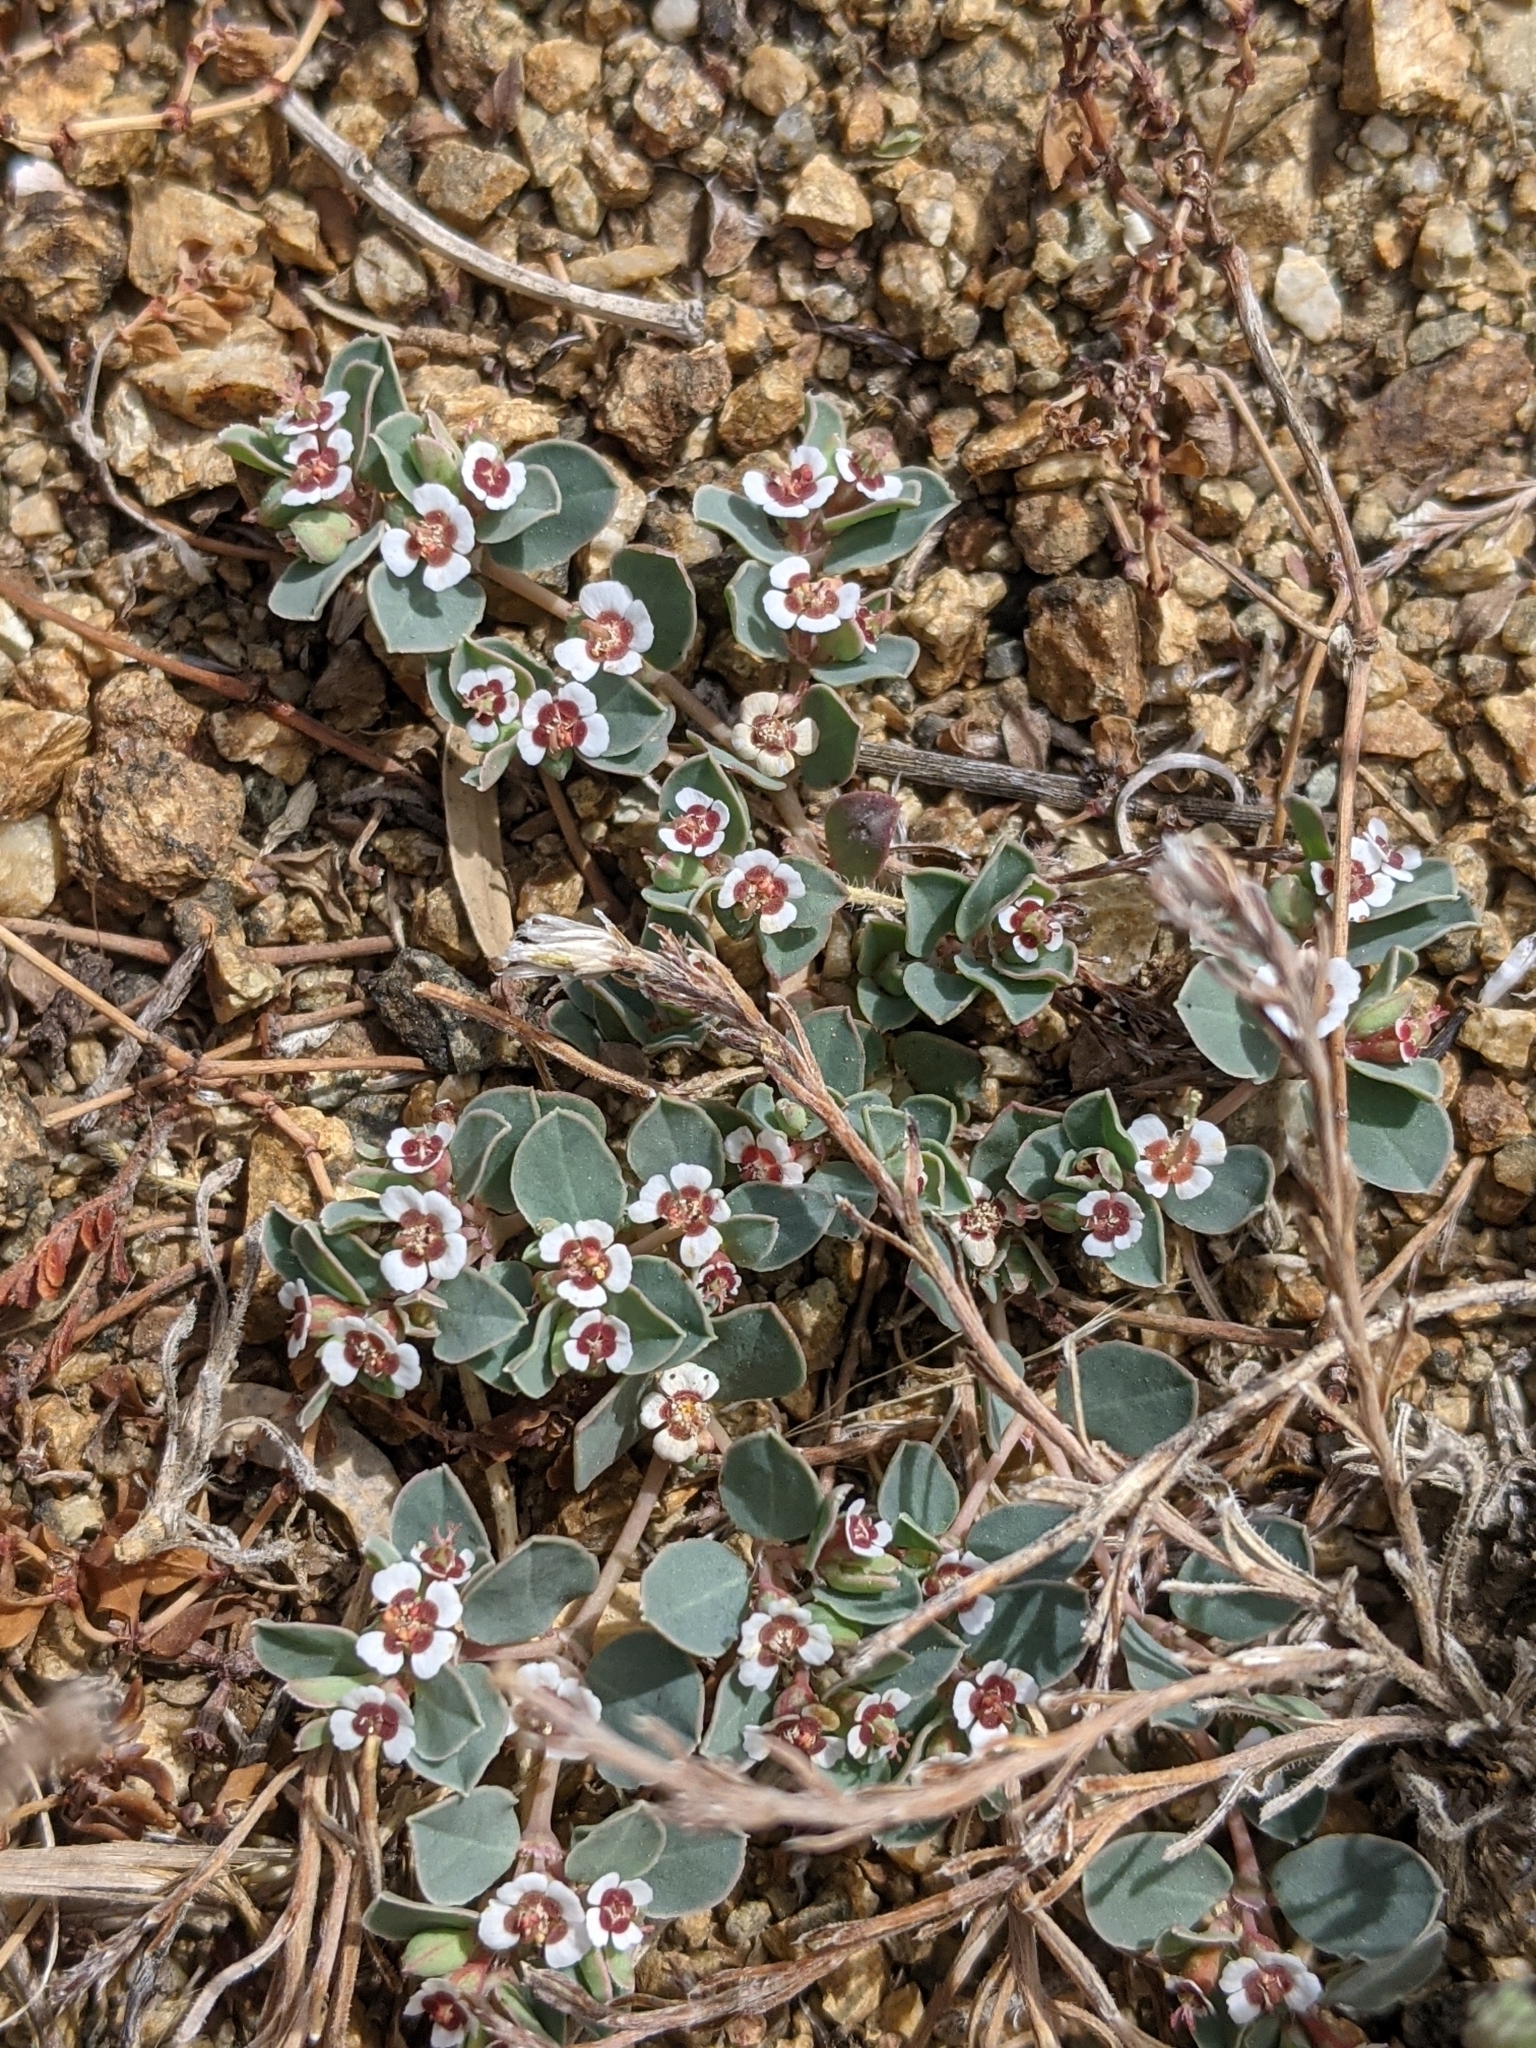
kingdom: Plantae
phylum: Tracheophyta
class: Magnoliopsida
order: Malpighiales
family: Euphorbiaceae
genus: Euphorbia
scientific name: Euphorbia albomarginata
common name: Whitemargin sandmat
